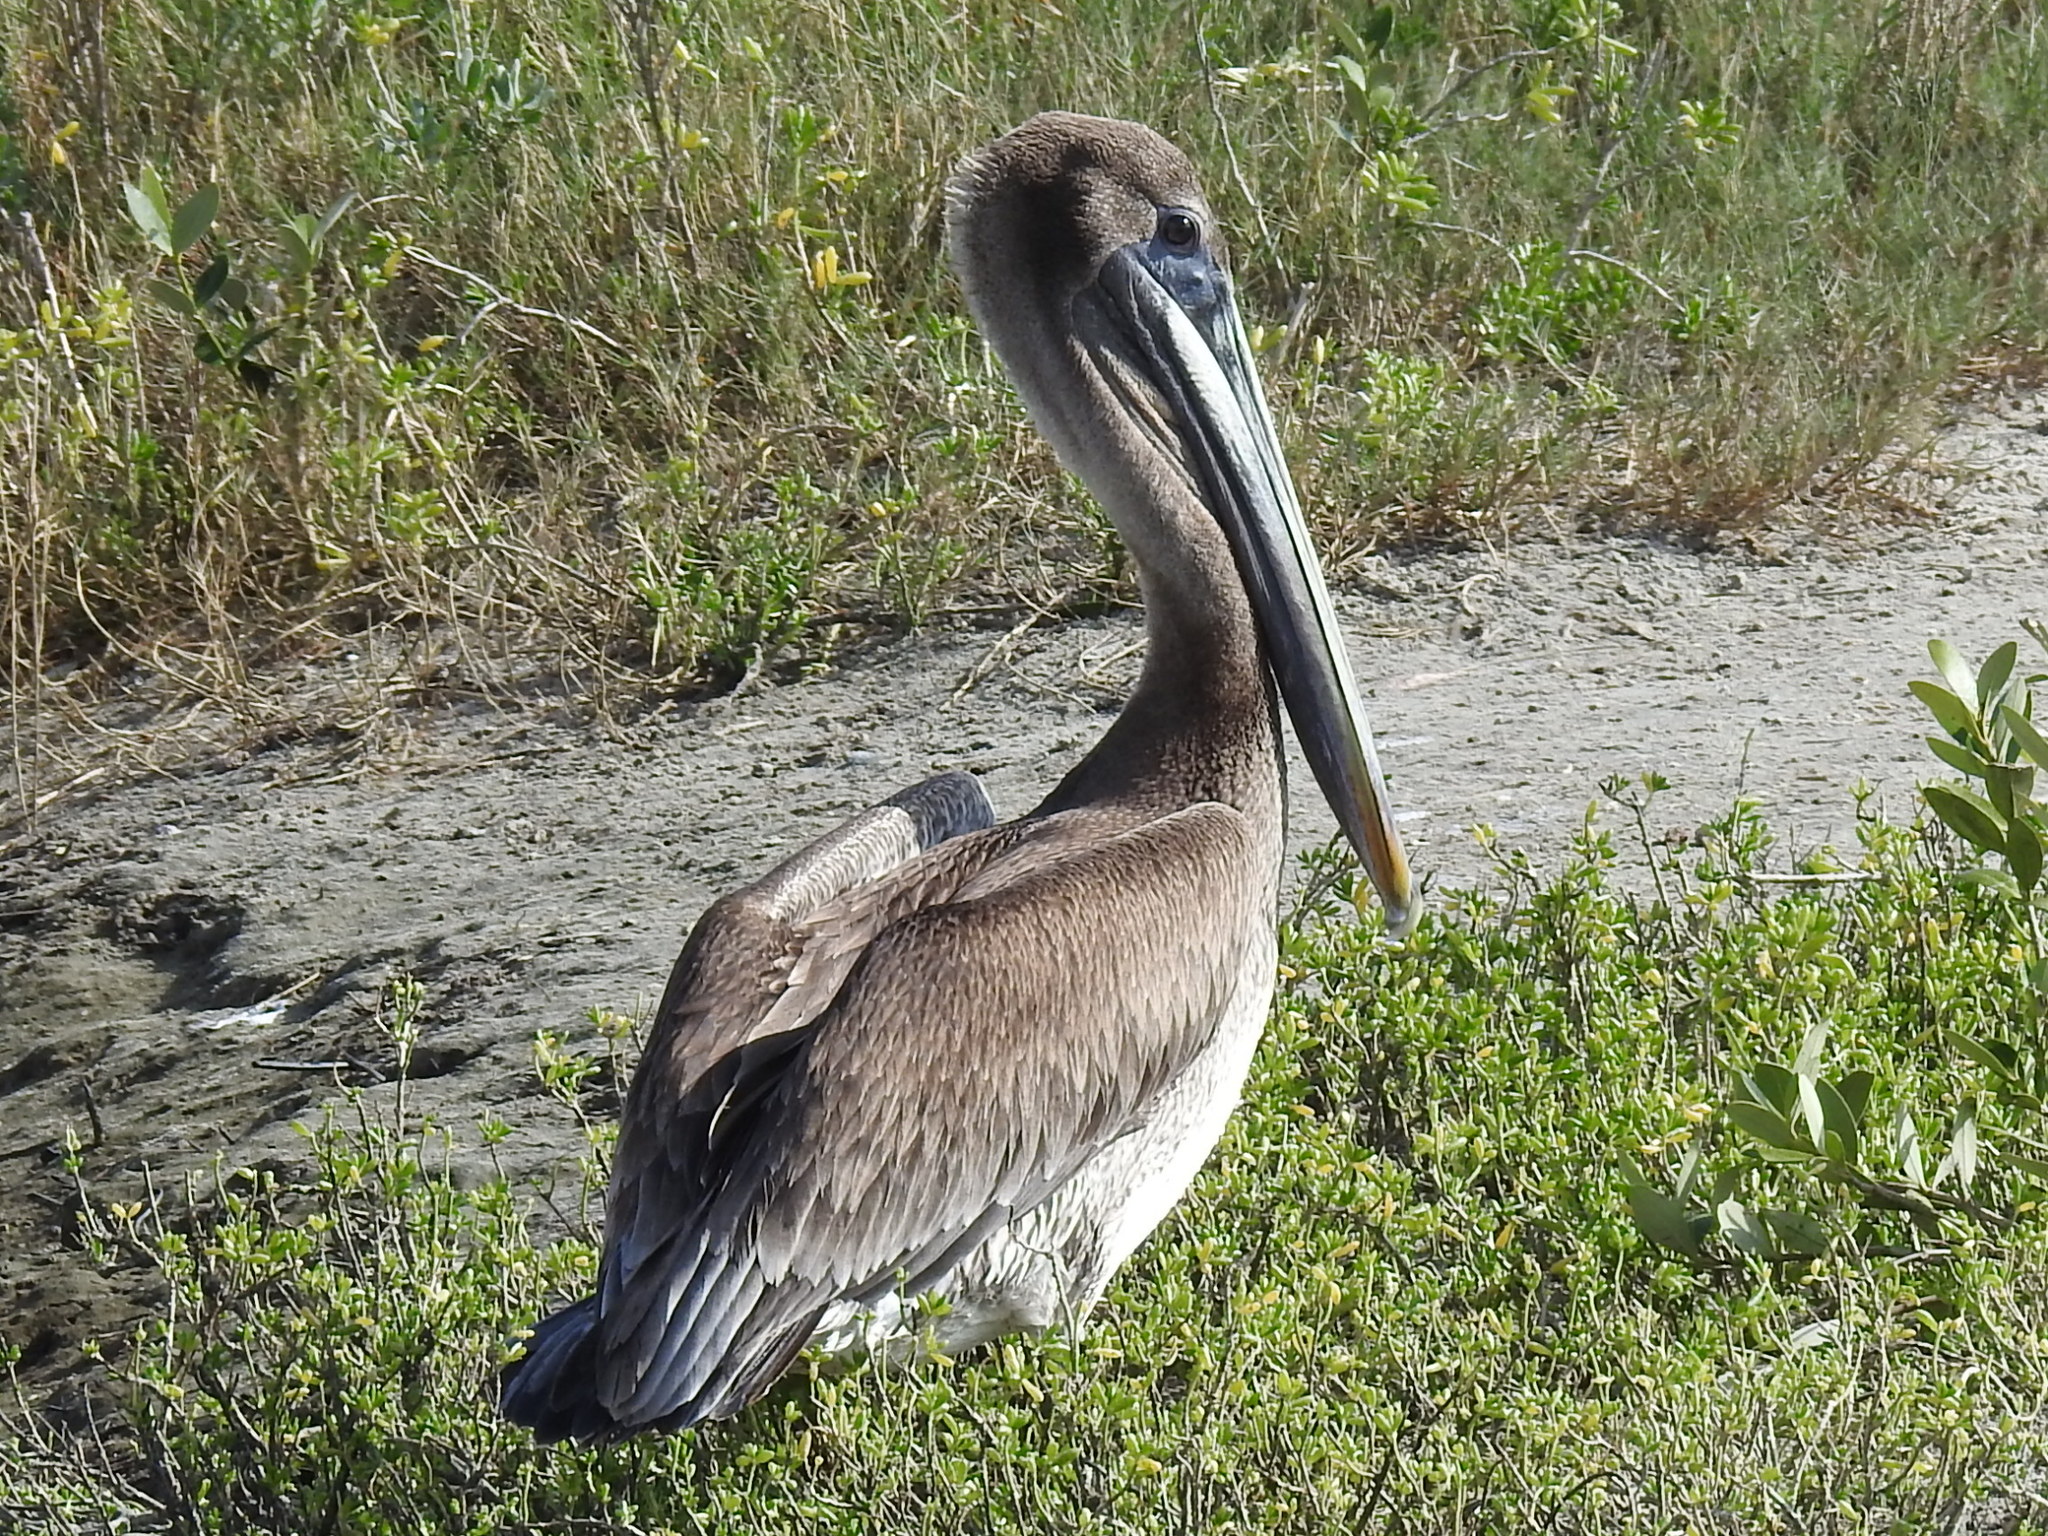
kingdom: Animalia
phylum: Chordata
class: Aves
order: Pelecaniformes
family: Pelecanidae
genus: Pelecanus
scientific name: Pelecanus occidentalis
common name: Brown pelican
